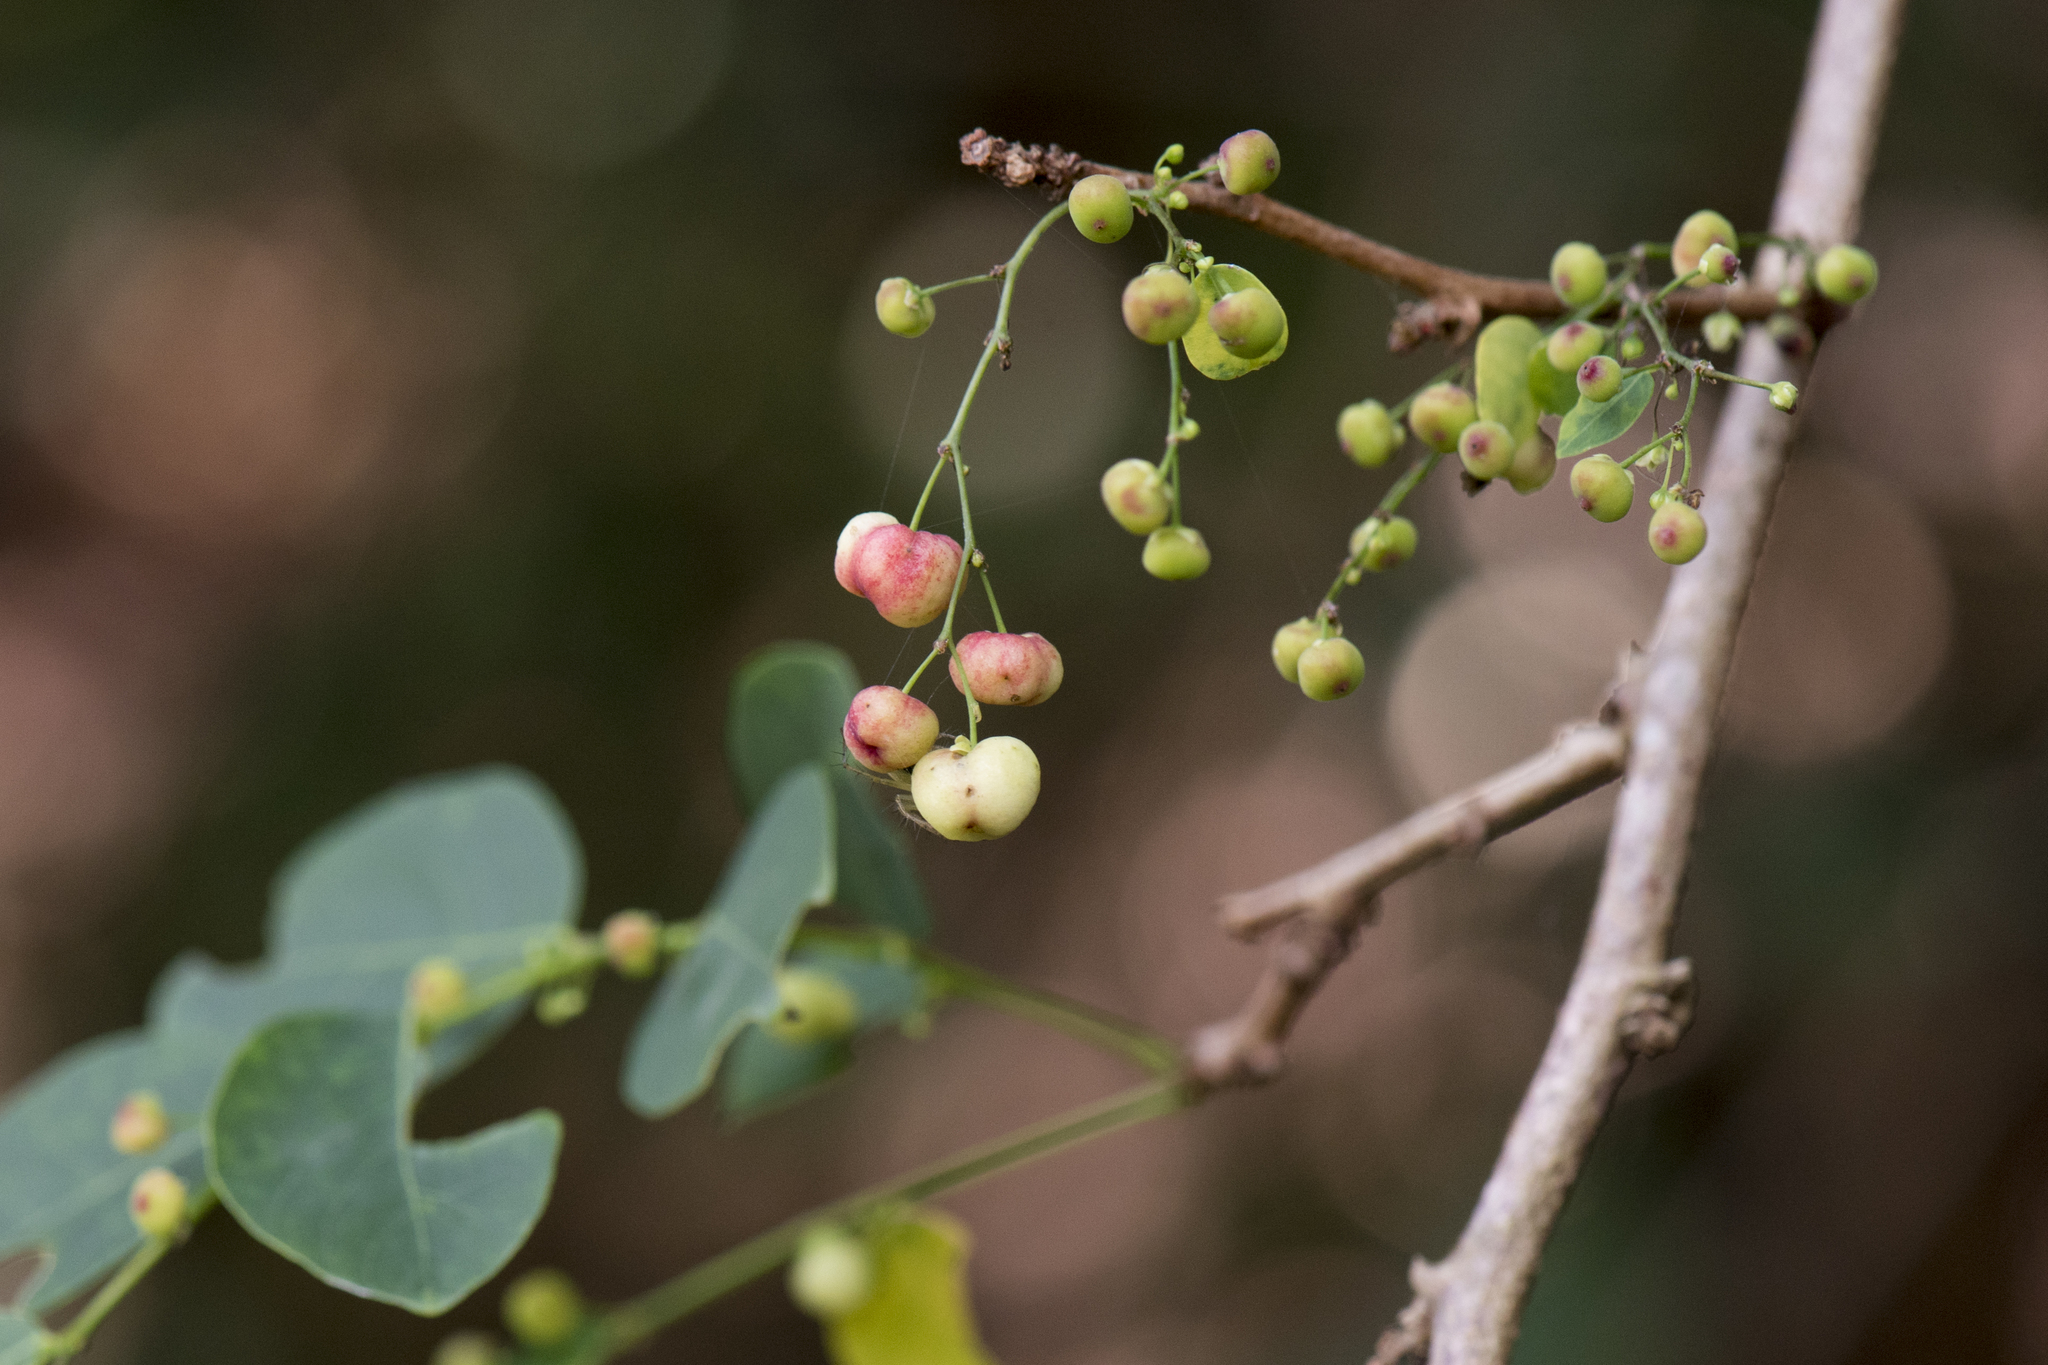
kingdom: Plantae
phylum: Tracheophyta
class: Magnoliopsida
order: Malpighiales
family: Phyllanthaceae
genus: Phyllanthus
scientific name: Phyllanthus reticulatus
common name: Potato bush
